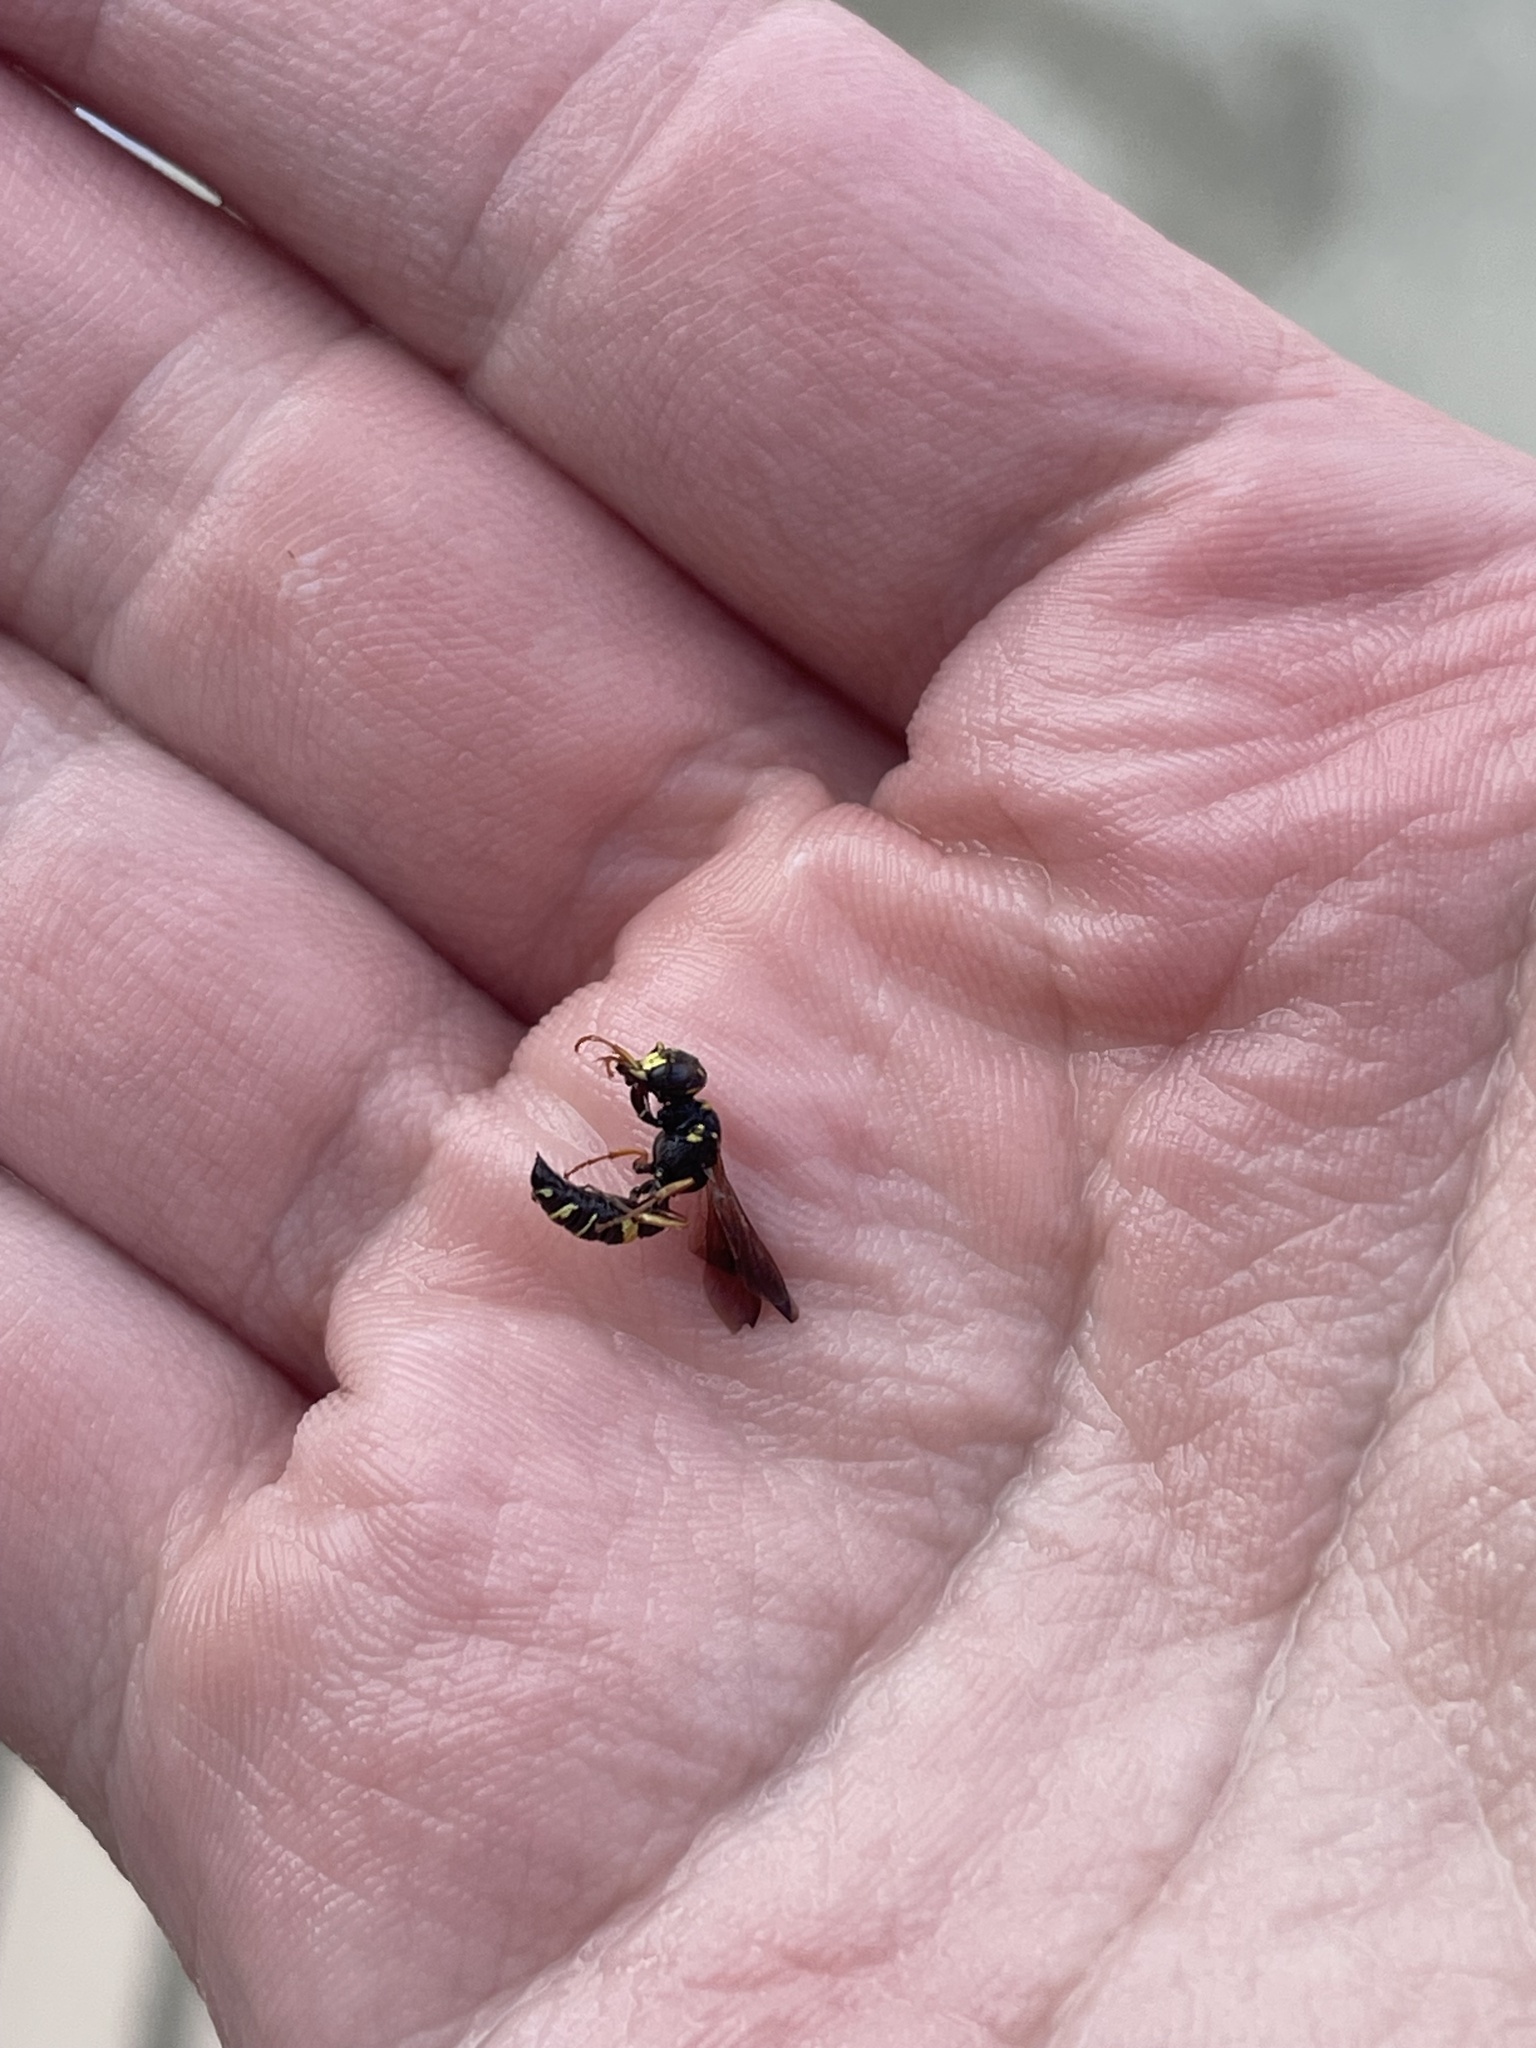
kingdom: Animalia
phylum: Arthropoda
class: Insecta
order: Hymenoptera
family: Crabronidae
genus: Philanthus
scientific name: Philanthus gibbosus
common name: Humped beewolf
